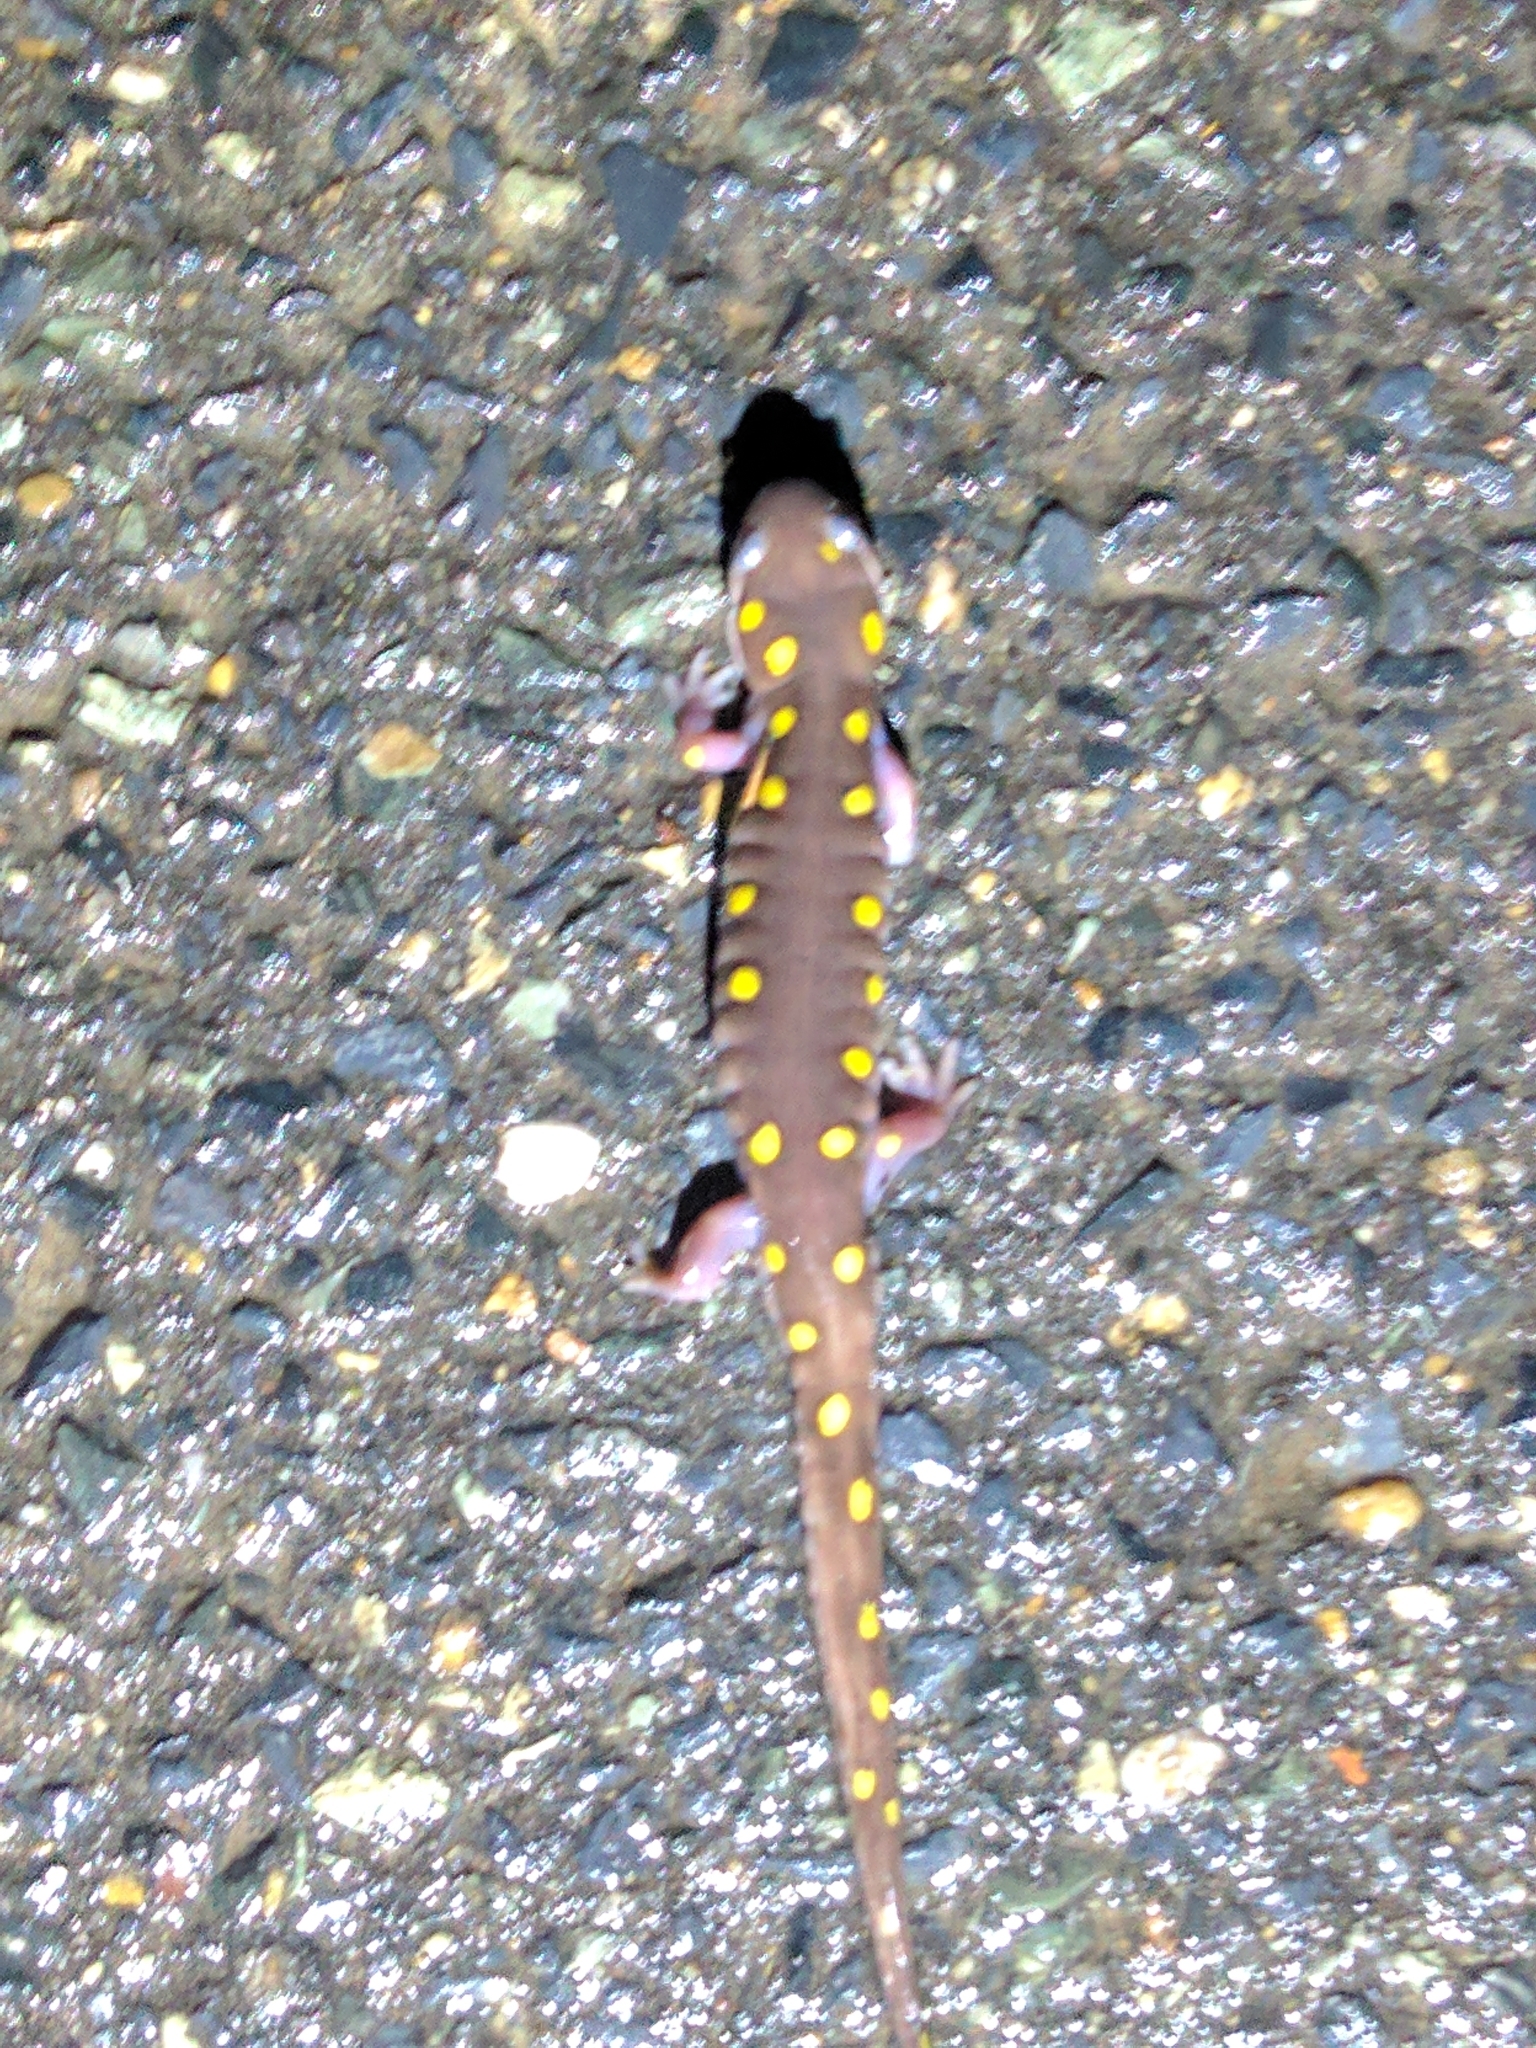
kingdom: Animalia
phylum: Chordata
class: Amphibia
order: Caudata
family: Ambystomatidae
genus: Ambystoma
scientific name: Ambystoma maculatum
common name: Spotted salamander
